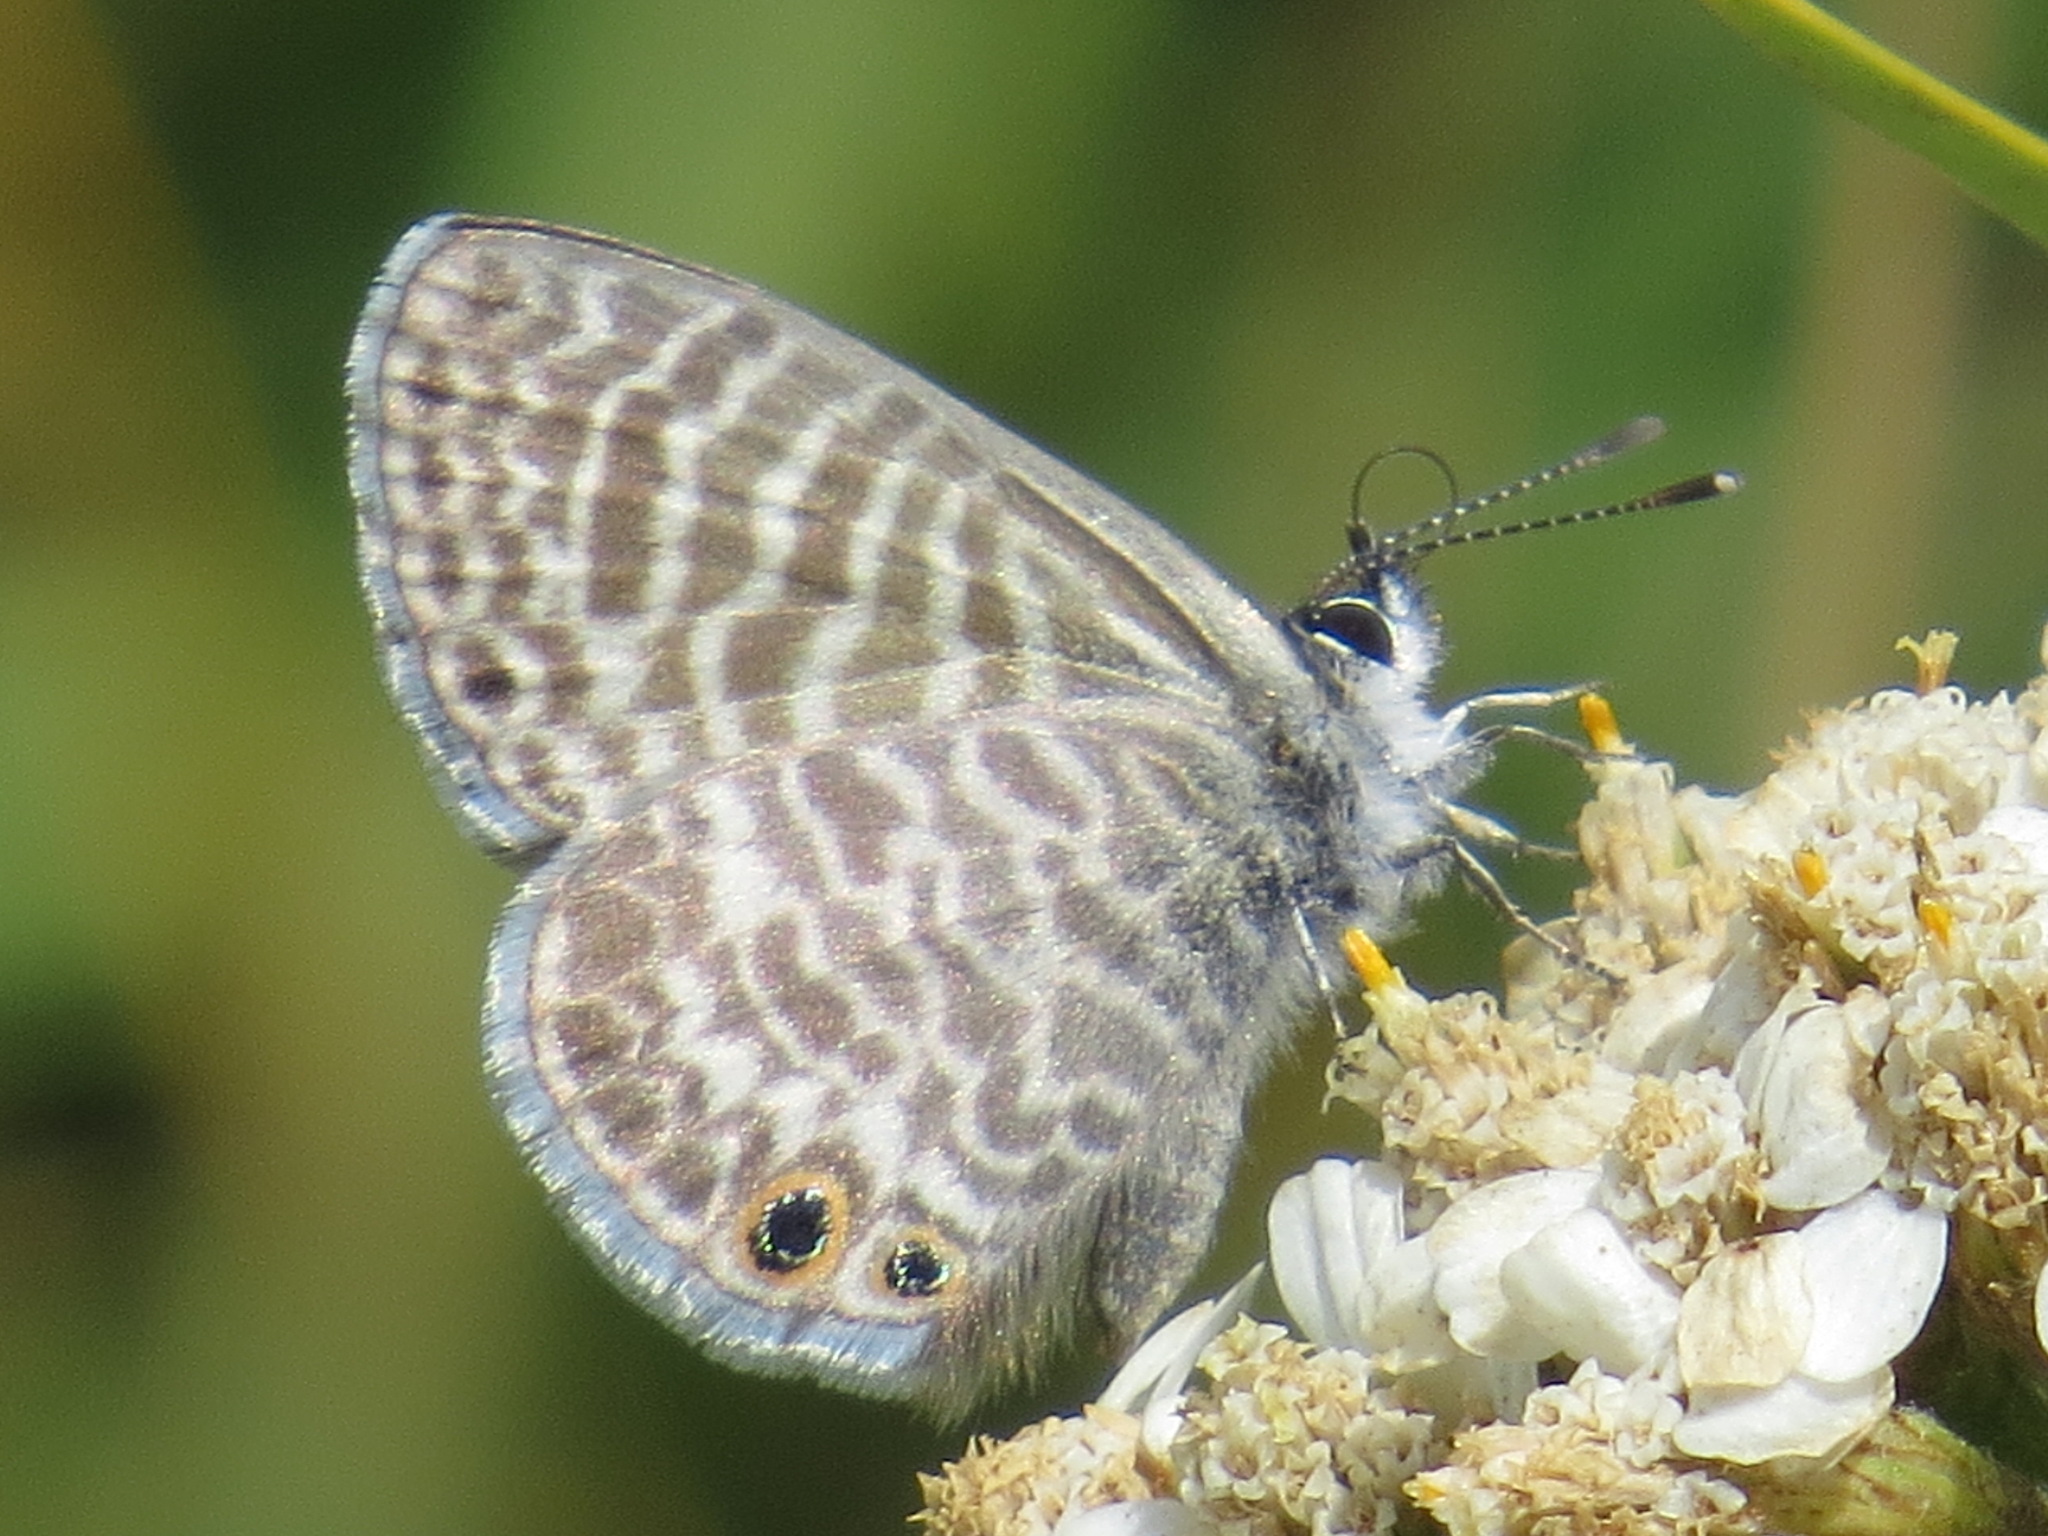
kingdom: Animalia
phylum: Arthropoda
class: Insecta
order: Lepidoptera
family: Lycaenidae
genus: Leptotes
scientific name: Leptotes marina
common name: Marine blue
